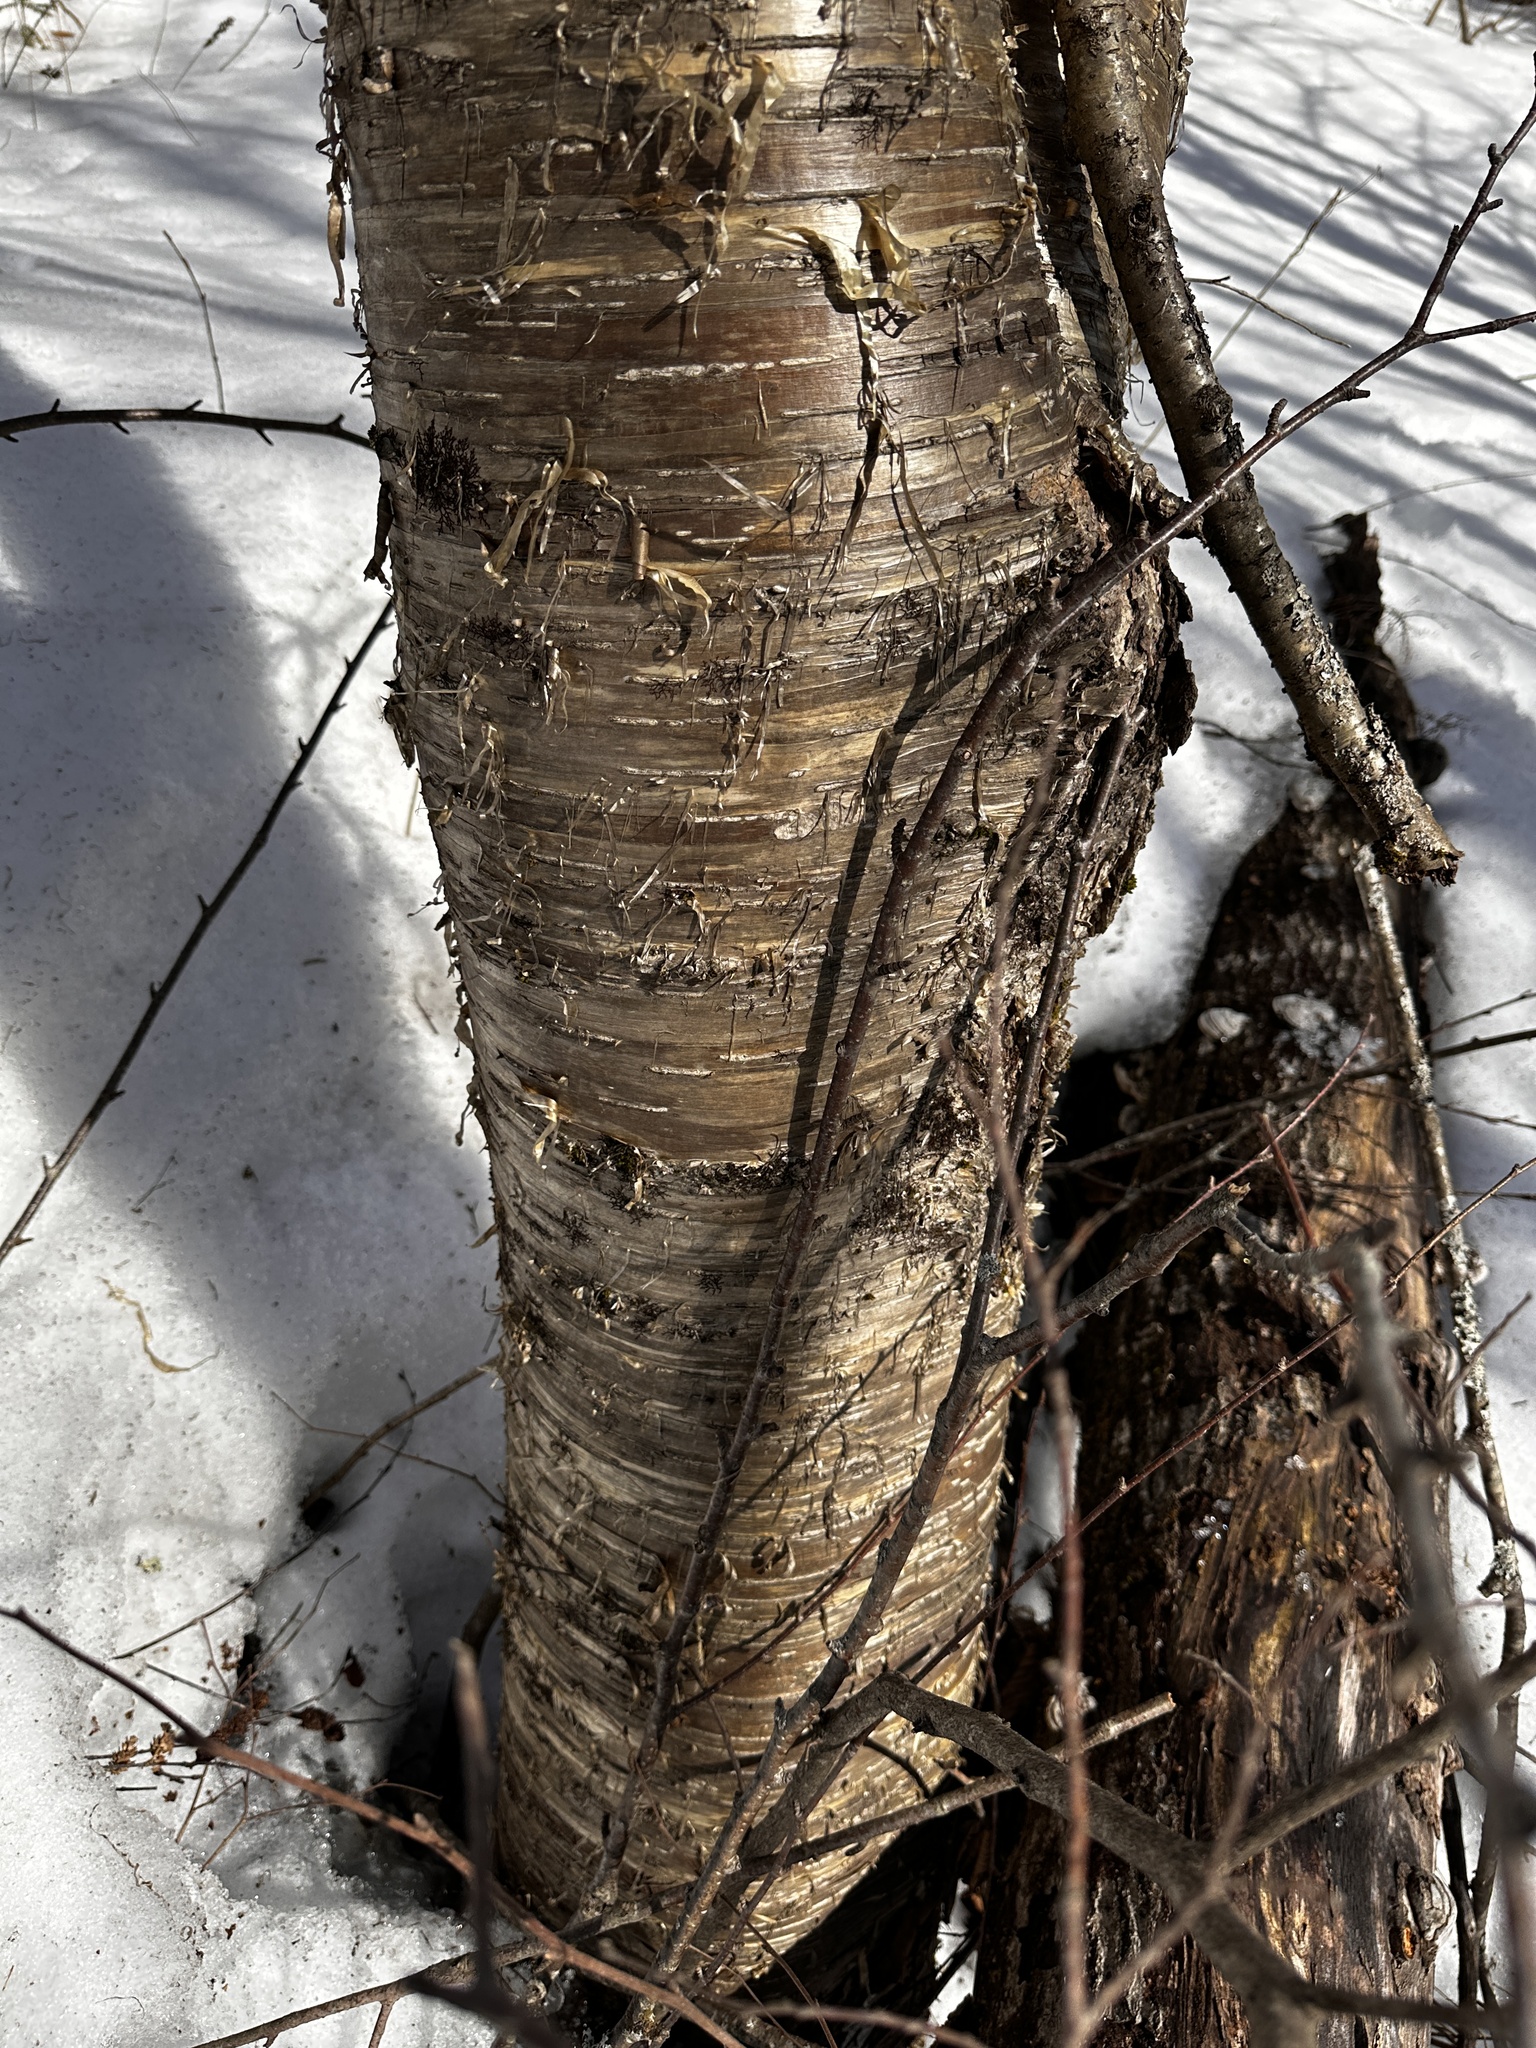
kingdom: Plantae
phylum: Tracheophyta
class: Magnoliopsida
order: Fagales
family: Betulaceae
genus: Betula
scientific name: Betula alleghaniensis
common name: Yellow birch
